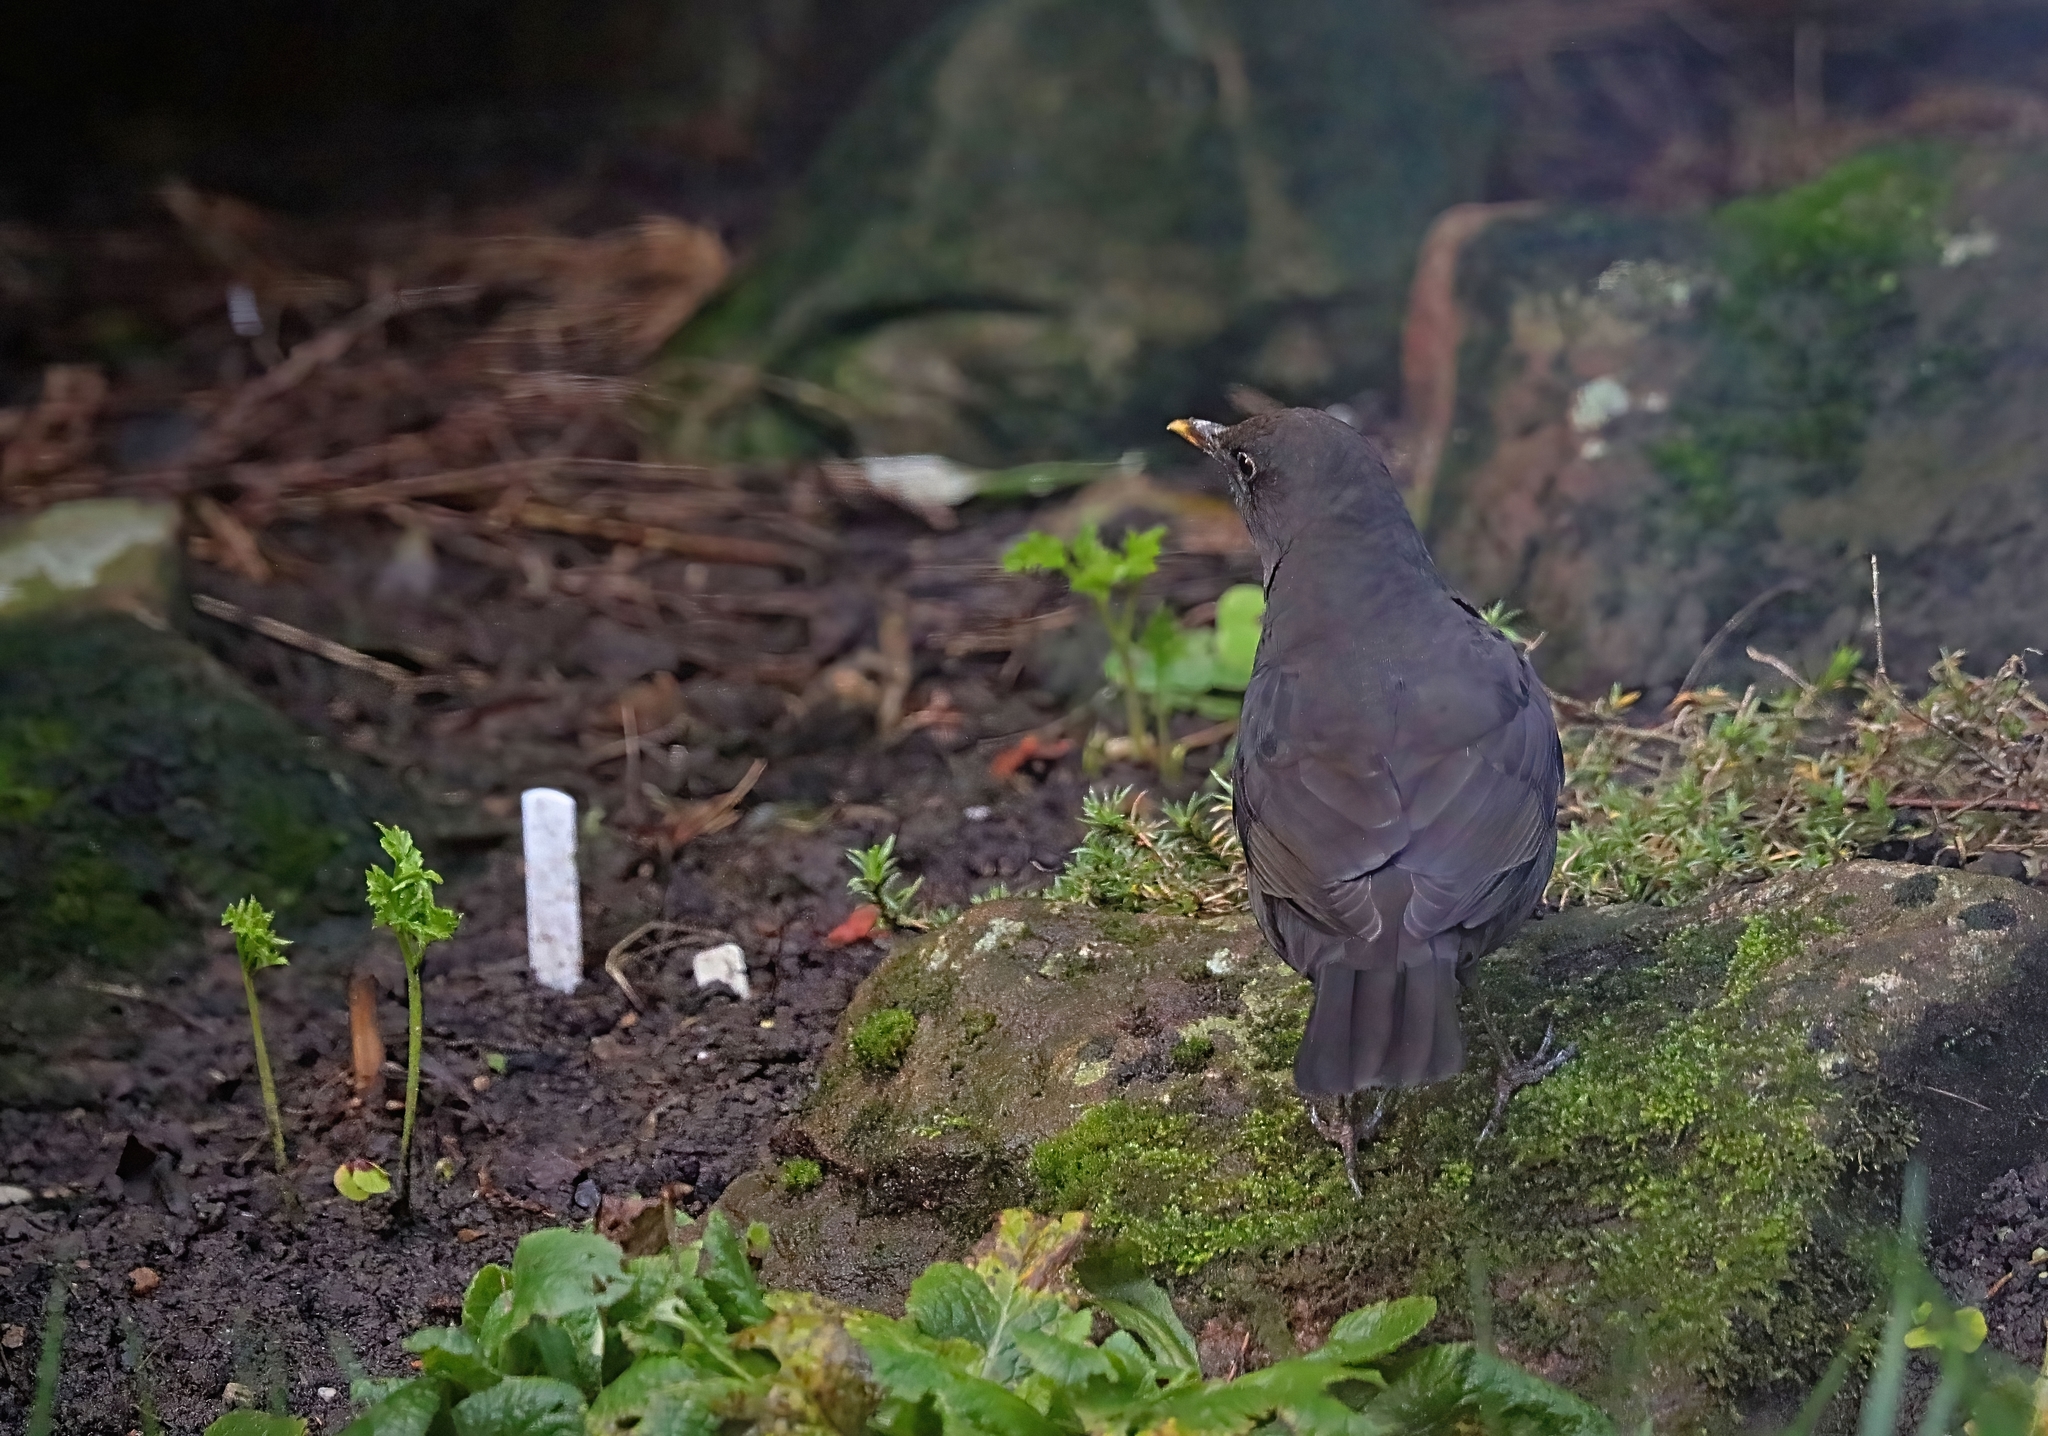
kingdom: Animalia
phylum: Chordata
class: Aves
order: Passeriformes
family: Turdidae
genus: Turdus
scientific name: Turdus merula
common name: Common blackbird
